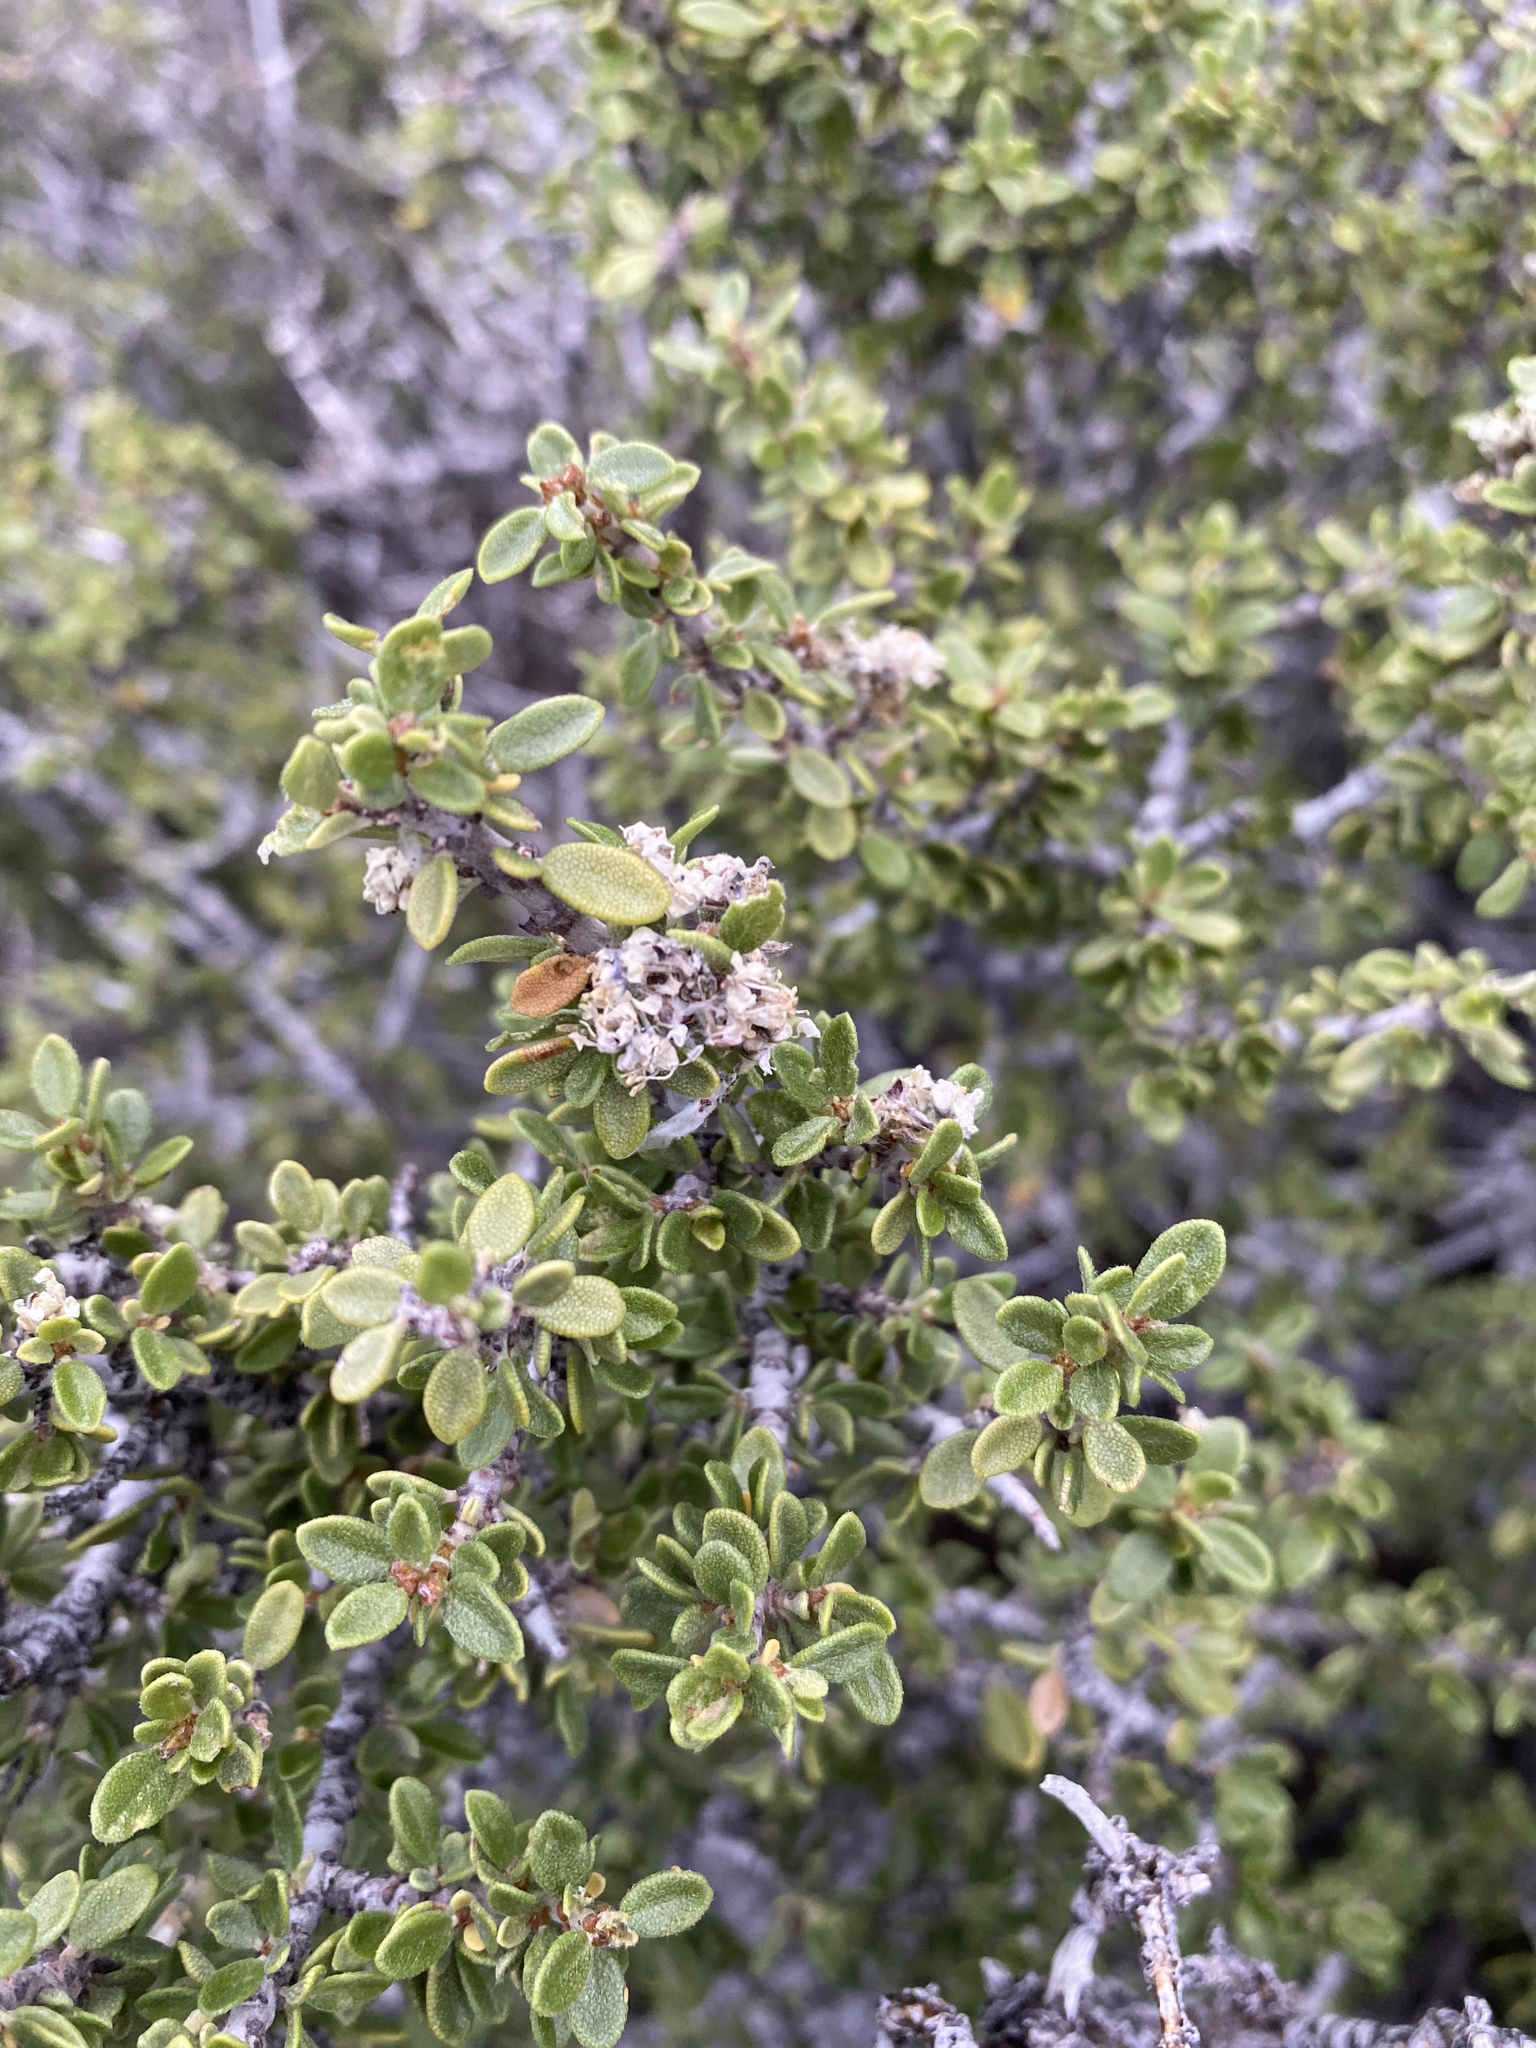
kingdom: Plantae
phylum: Tracheophyta
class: Magnoliopsida
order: Rosales
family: Rhamnaceae
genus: Ceanothus
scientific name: Ceanothus pauciflorus
